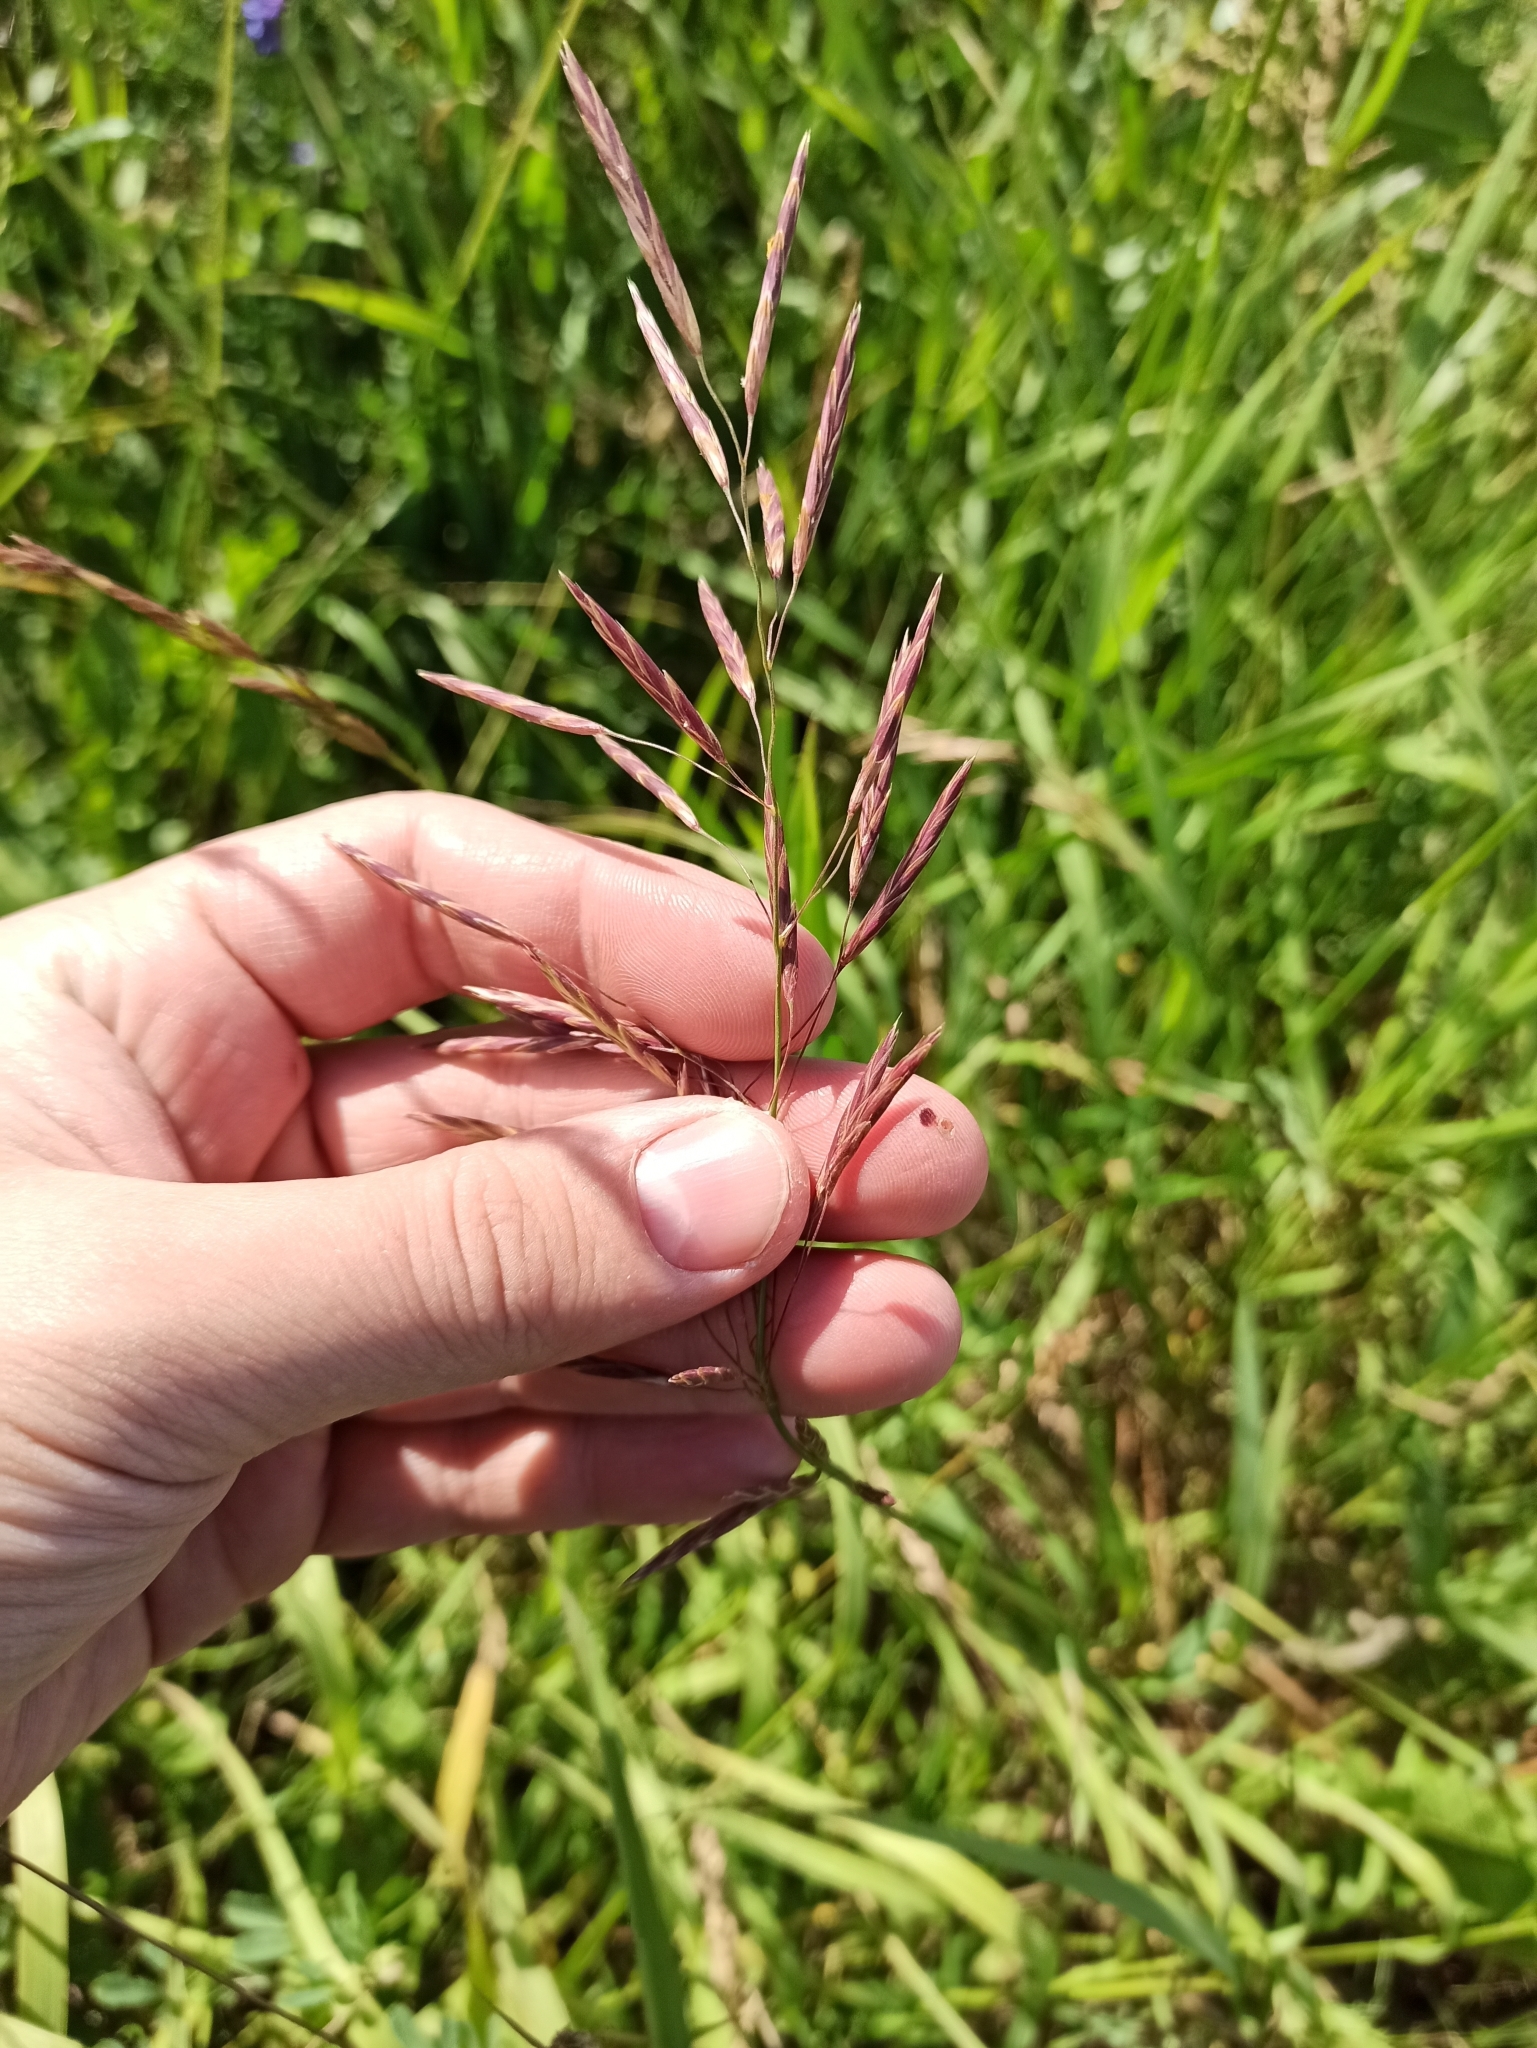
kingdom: Plantae
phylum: Tracheophyta
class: Liliopsida
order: Poales
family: Poaceae
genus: Bromus
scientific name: Bromus inermis
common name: Smooth brome
